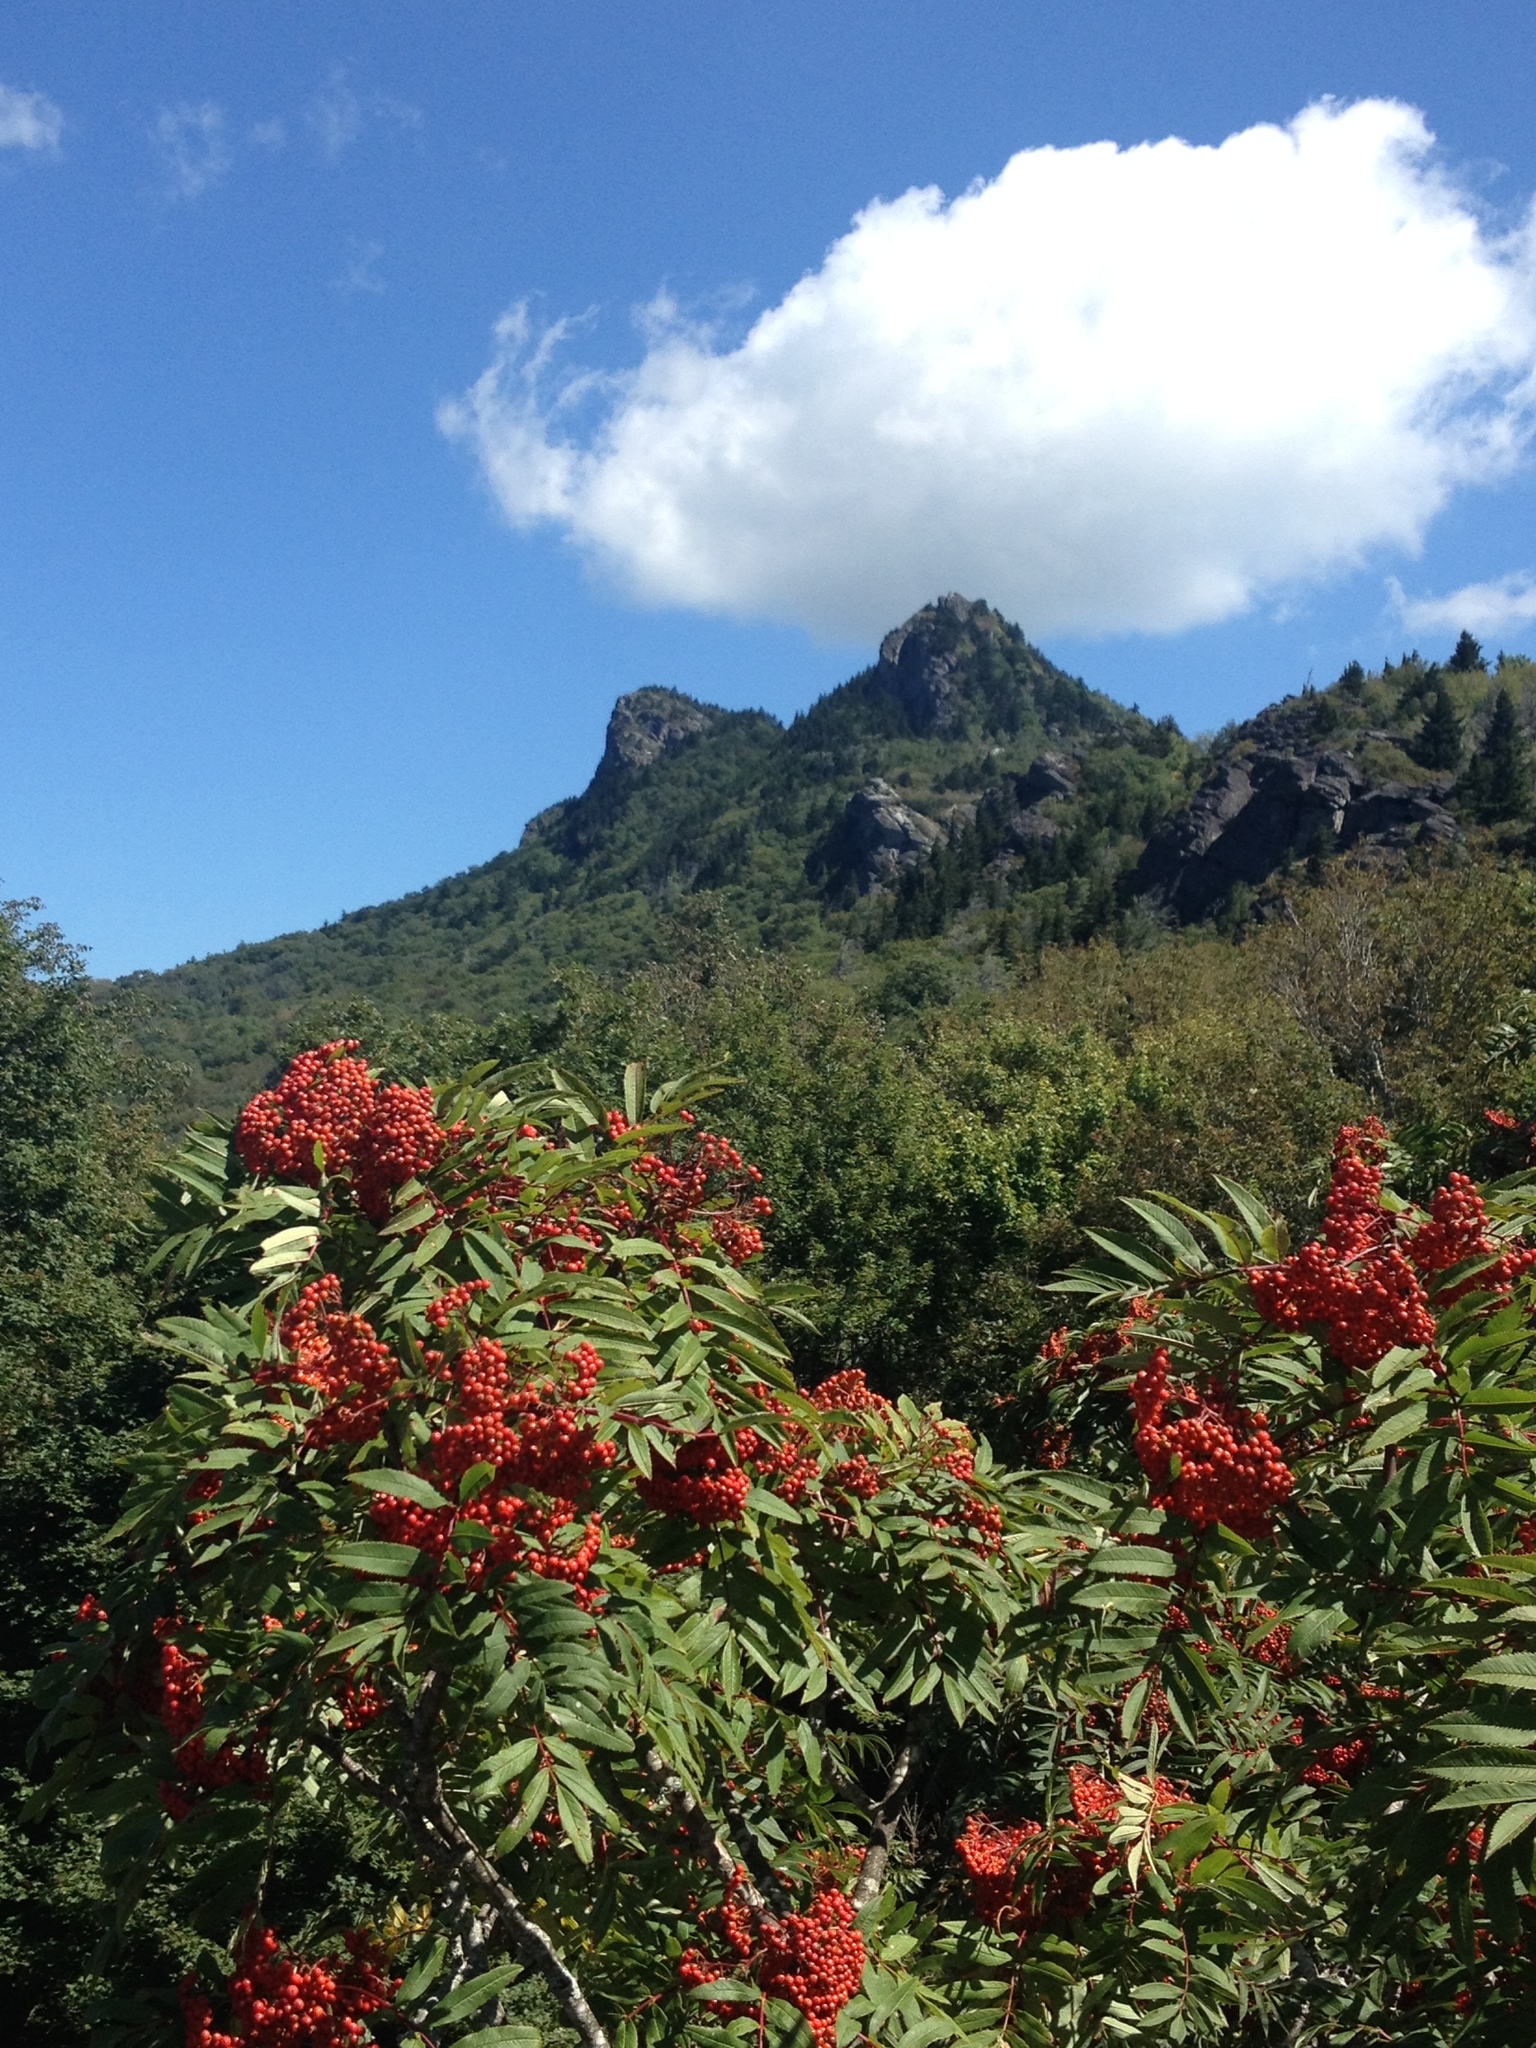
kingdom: Plantae
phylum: Tracheophyta
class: Magnoliopsida
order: Rosales
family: Rosaceae
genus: Sorbus
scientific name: Sorbus americana
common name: American mountain-ash
